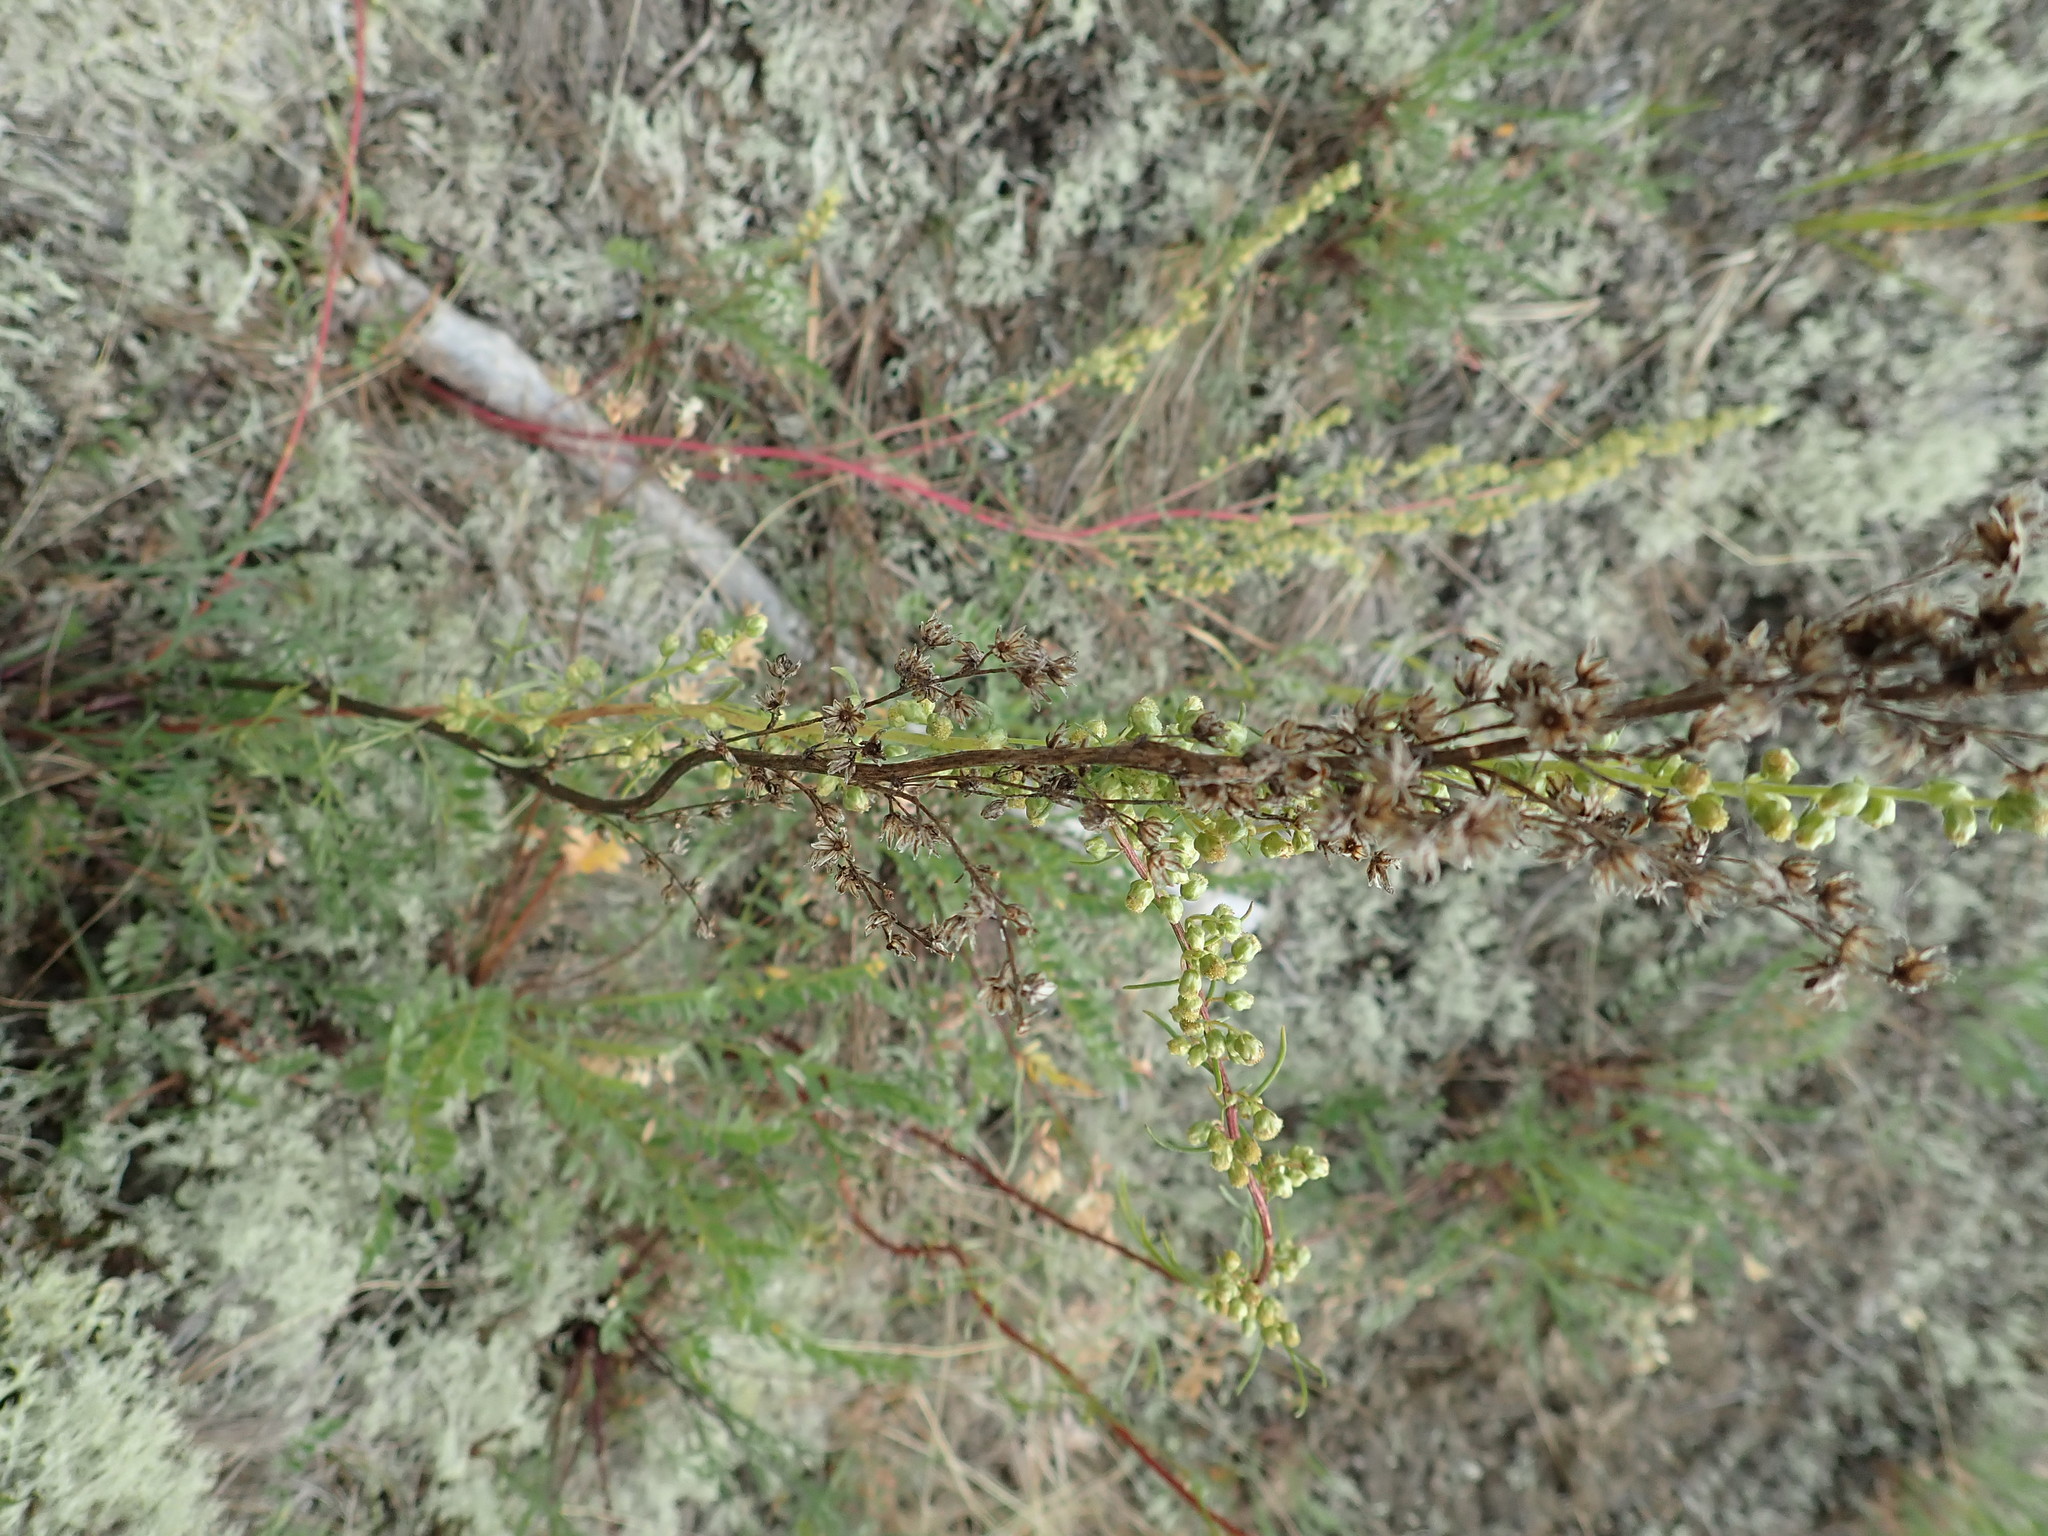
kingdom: Plantae
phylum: Tracheophyta
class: Magnoliopsida
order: Asterales
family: Asteraceae
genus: Artemisia
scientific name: Artemisia campestris
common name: Field wormwood
